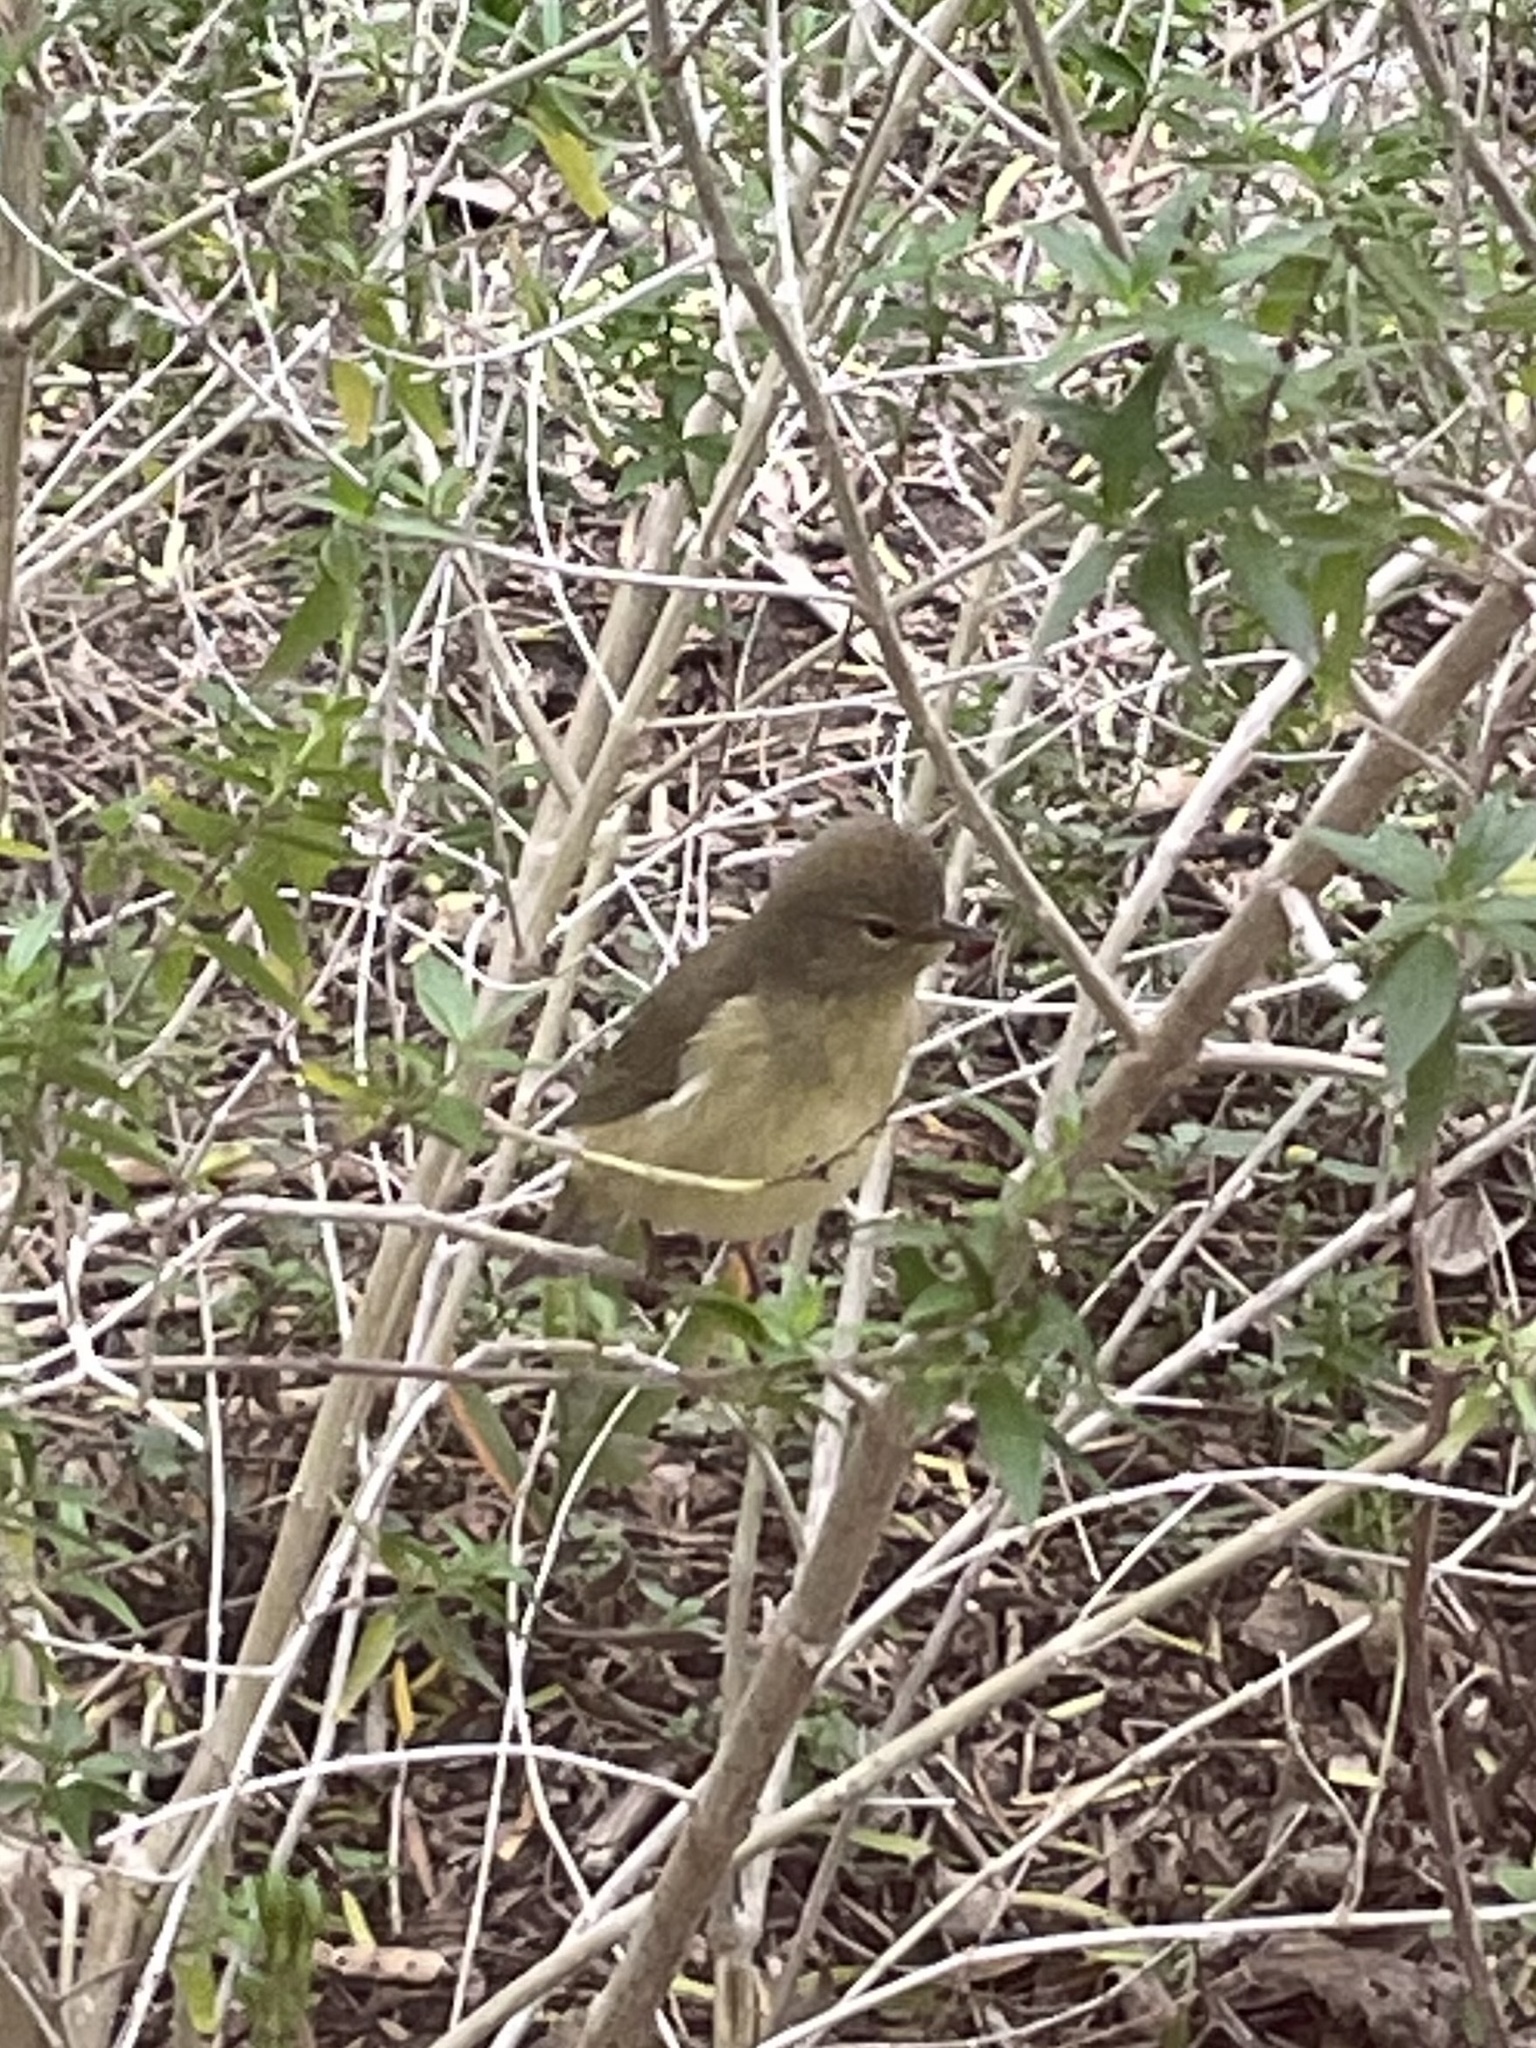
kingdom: Animalia
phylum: Chordata
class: Aves
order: Passeriformes
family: Parulidae
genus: Leiothlypis
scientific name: Leiothlypis celata
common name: Orange-crowned warbler
